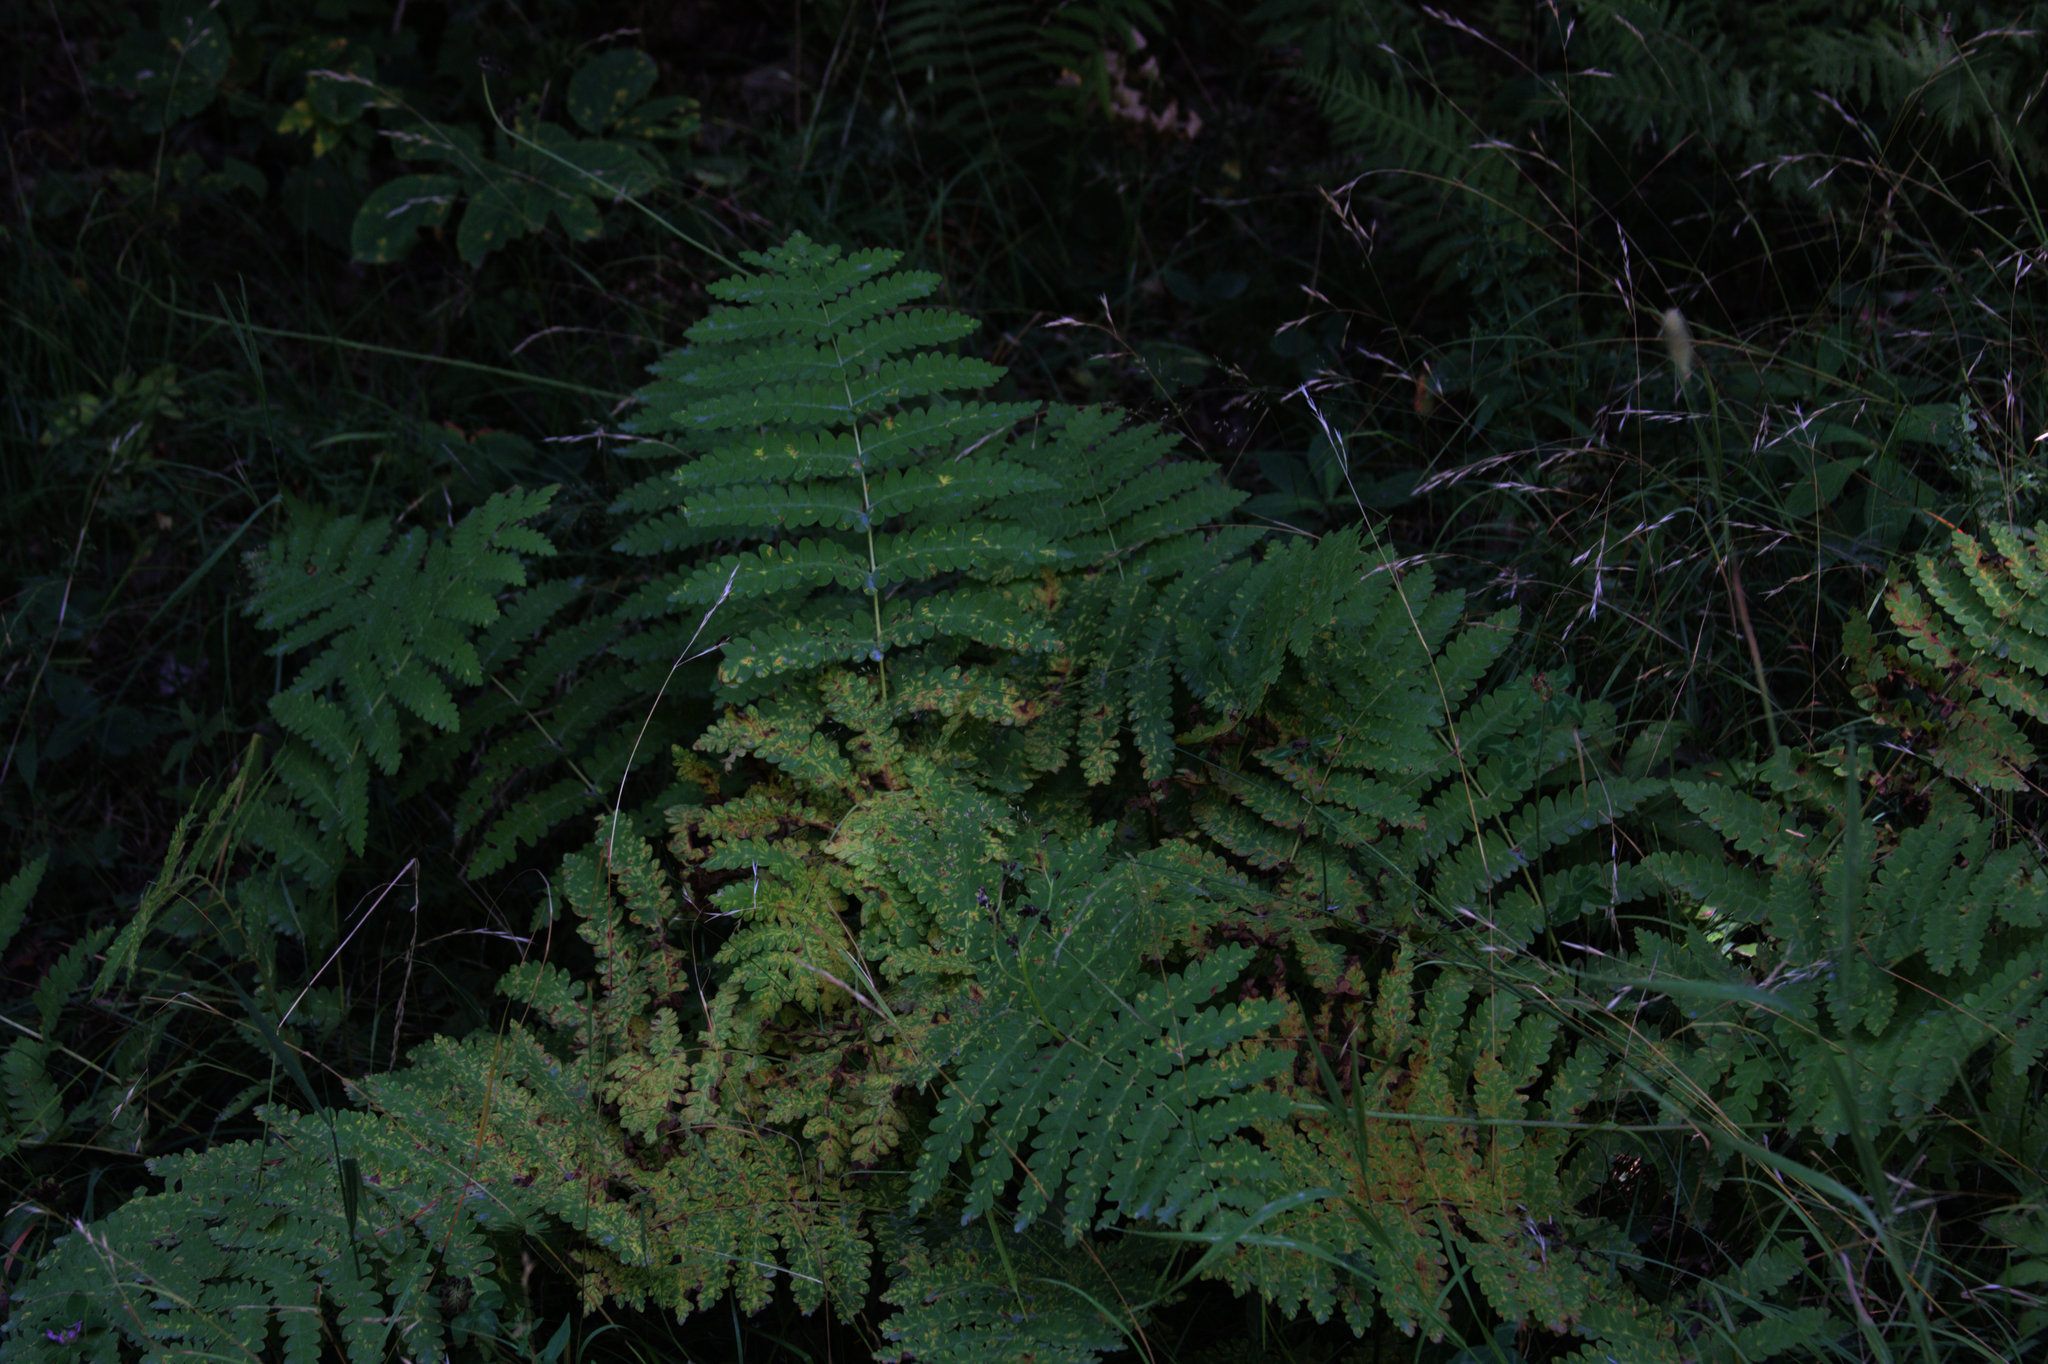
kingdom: Plantae
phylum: Tracheophyta
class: Polypodiopsida
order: Osmundales
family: Osmundaceae
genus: Claytosmunda
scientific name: Claytosmunda claytoniana
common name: Clayton's fern
